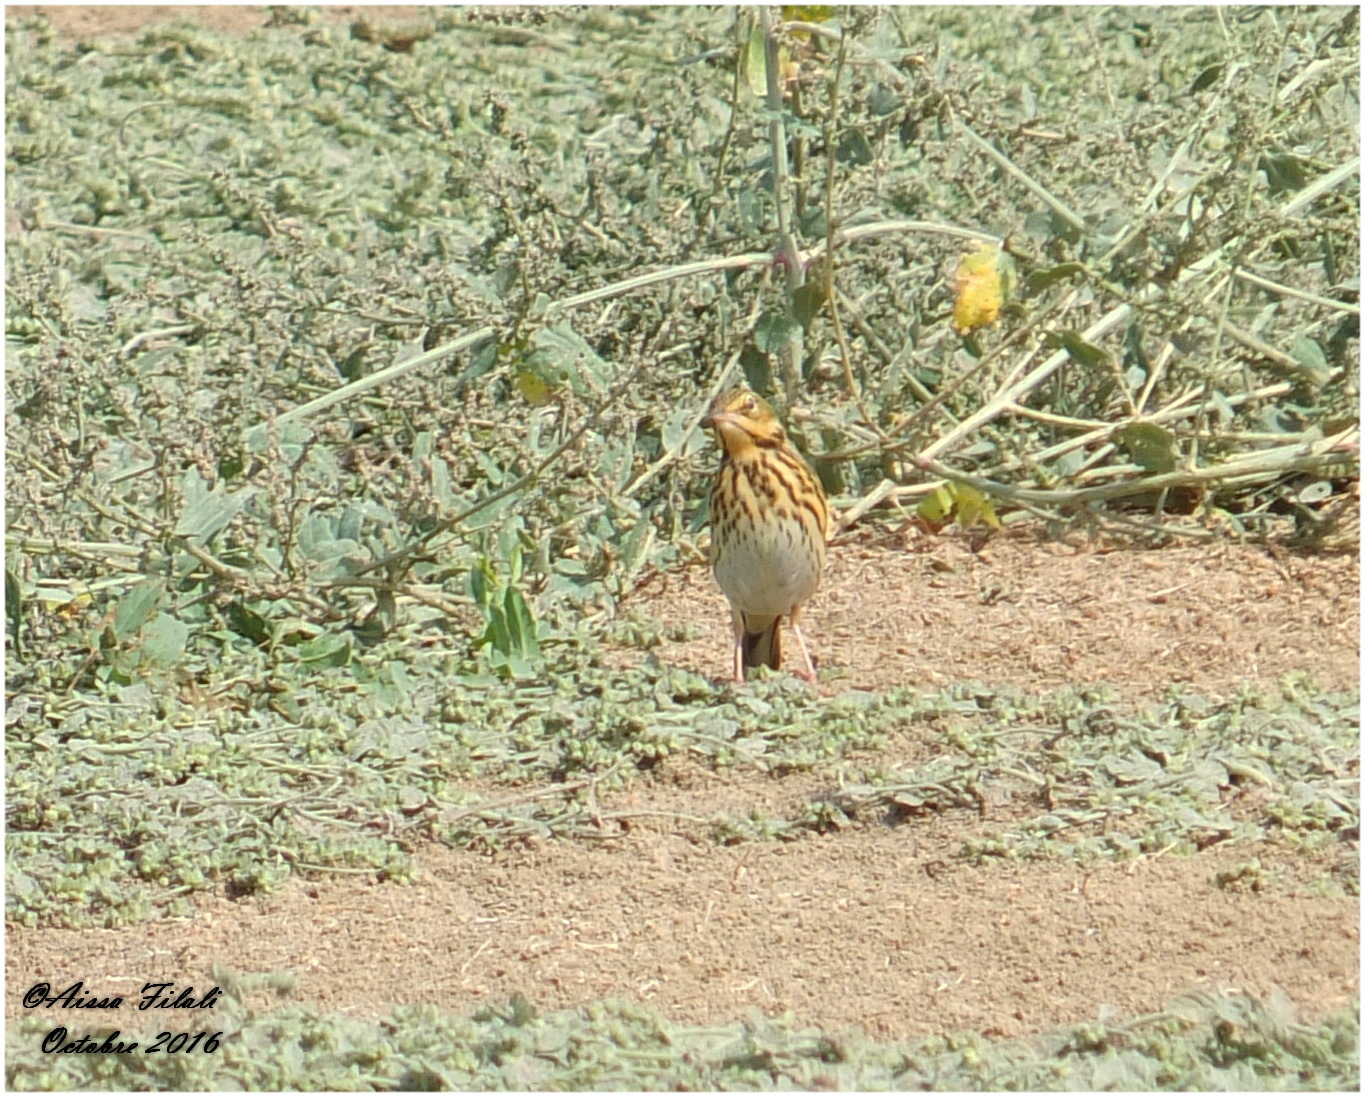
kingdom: Animalia
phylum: Chordata
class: Aves
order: Passeriformes
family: Motacillidae
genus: Anthus
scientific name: Anthus trivialis
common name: Tree pipit
